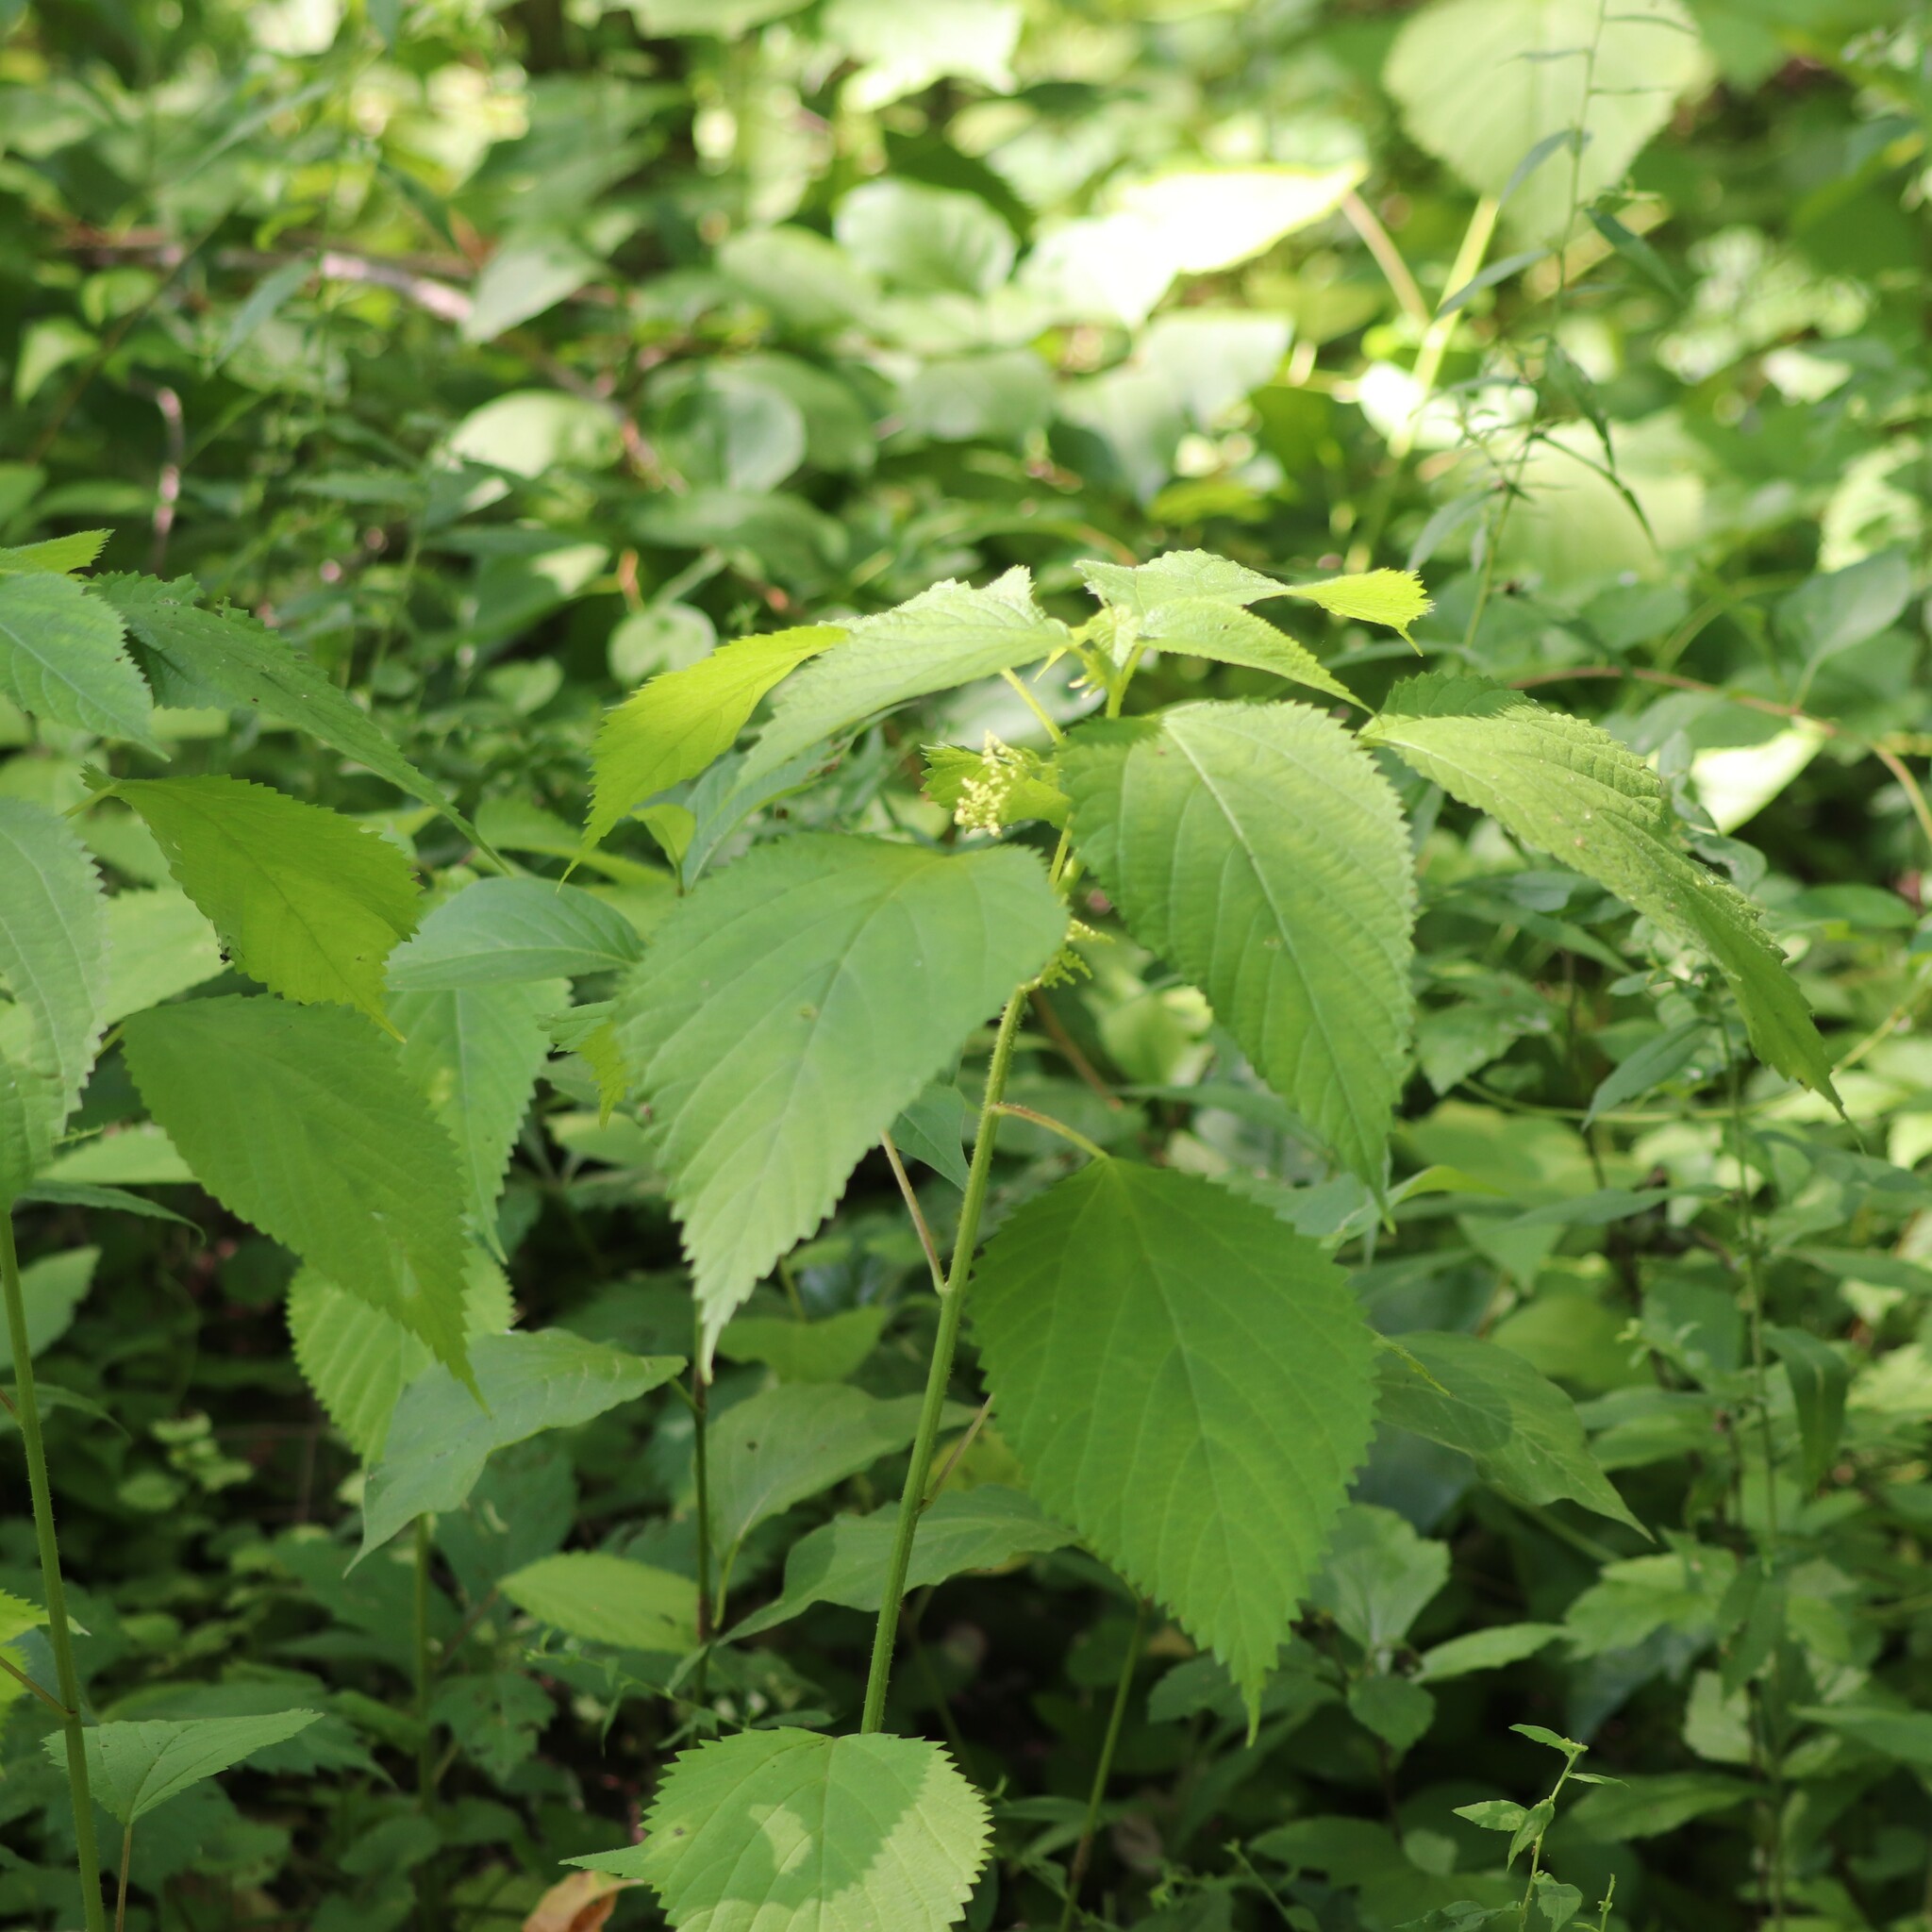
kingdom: Plantae
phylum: Tracheophyta
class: Magnoliopsida
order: Rosales
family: Urticaceae
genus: Laportea
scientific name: Laportea canadensis
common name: Canada nettle
